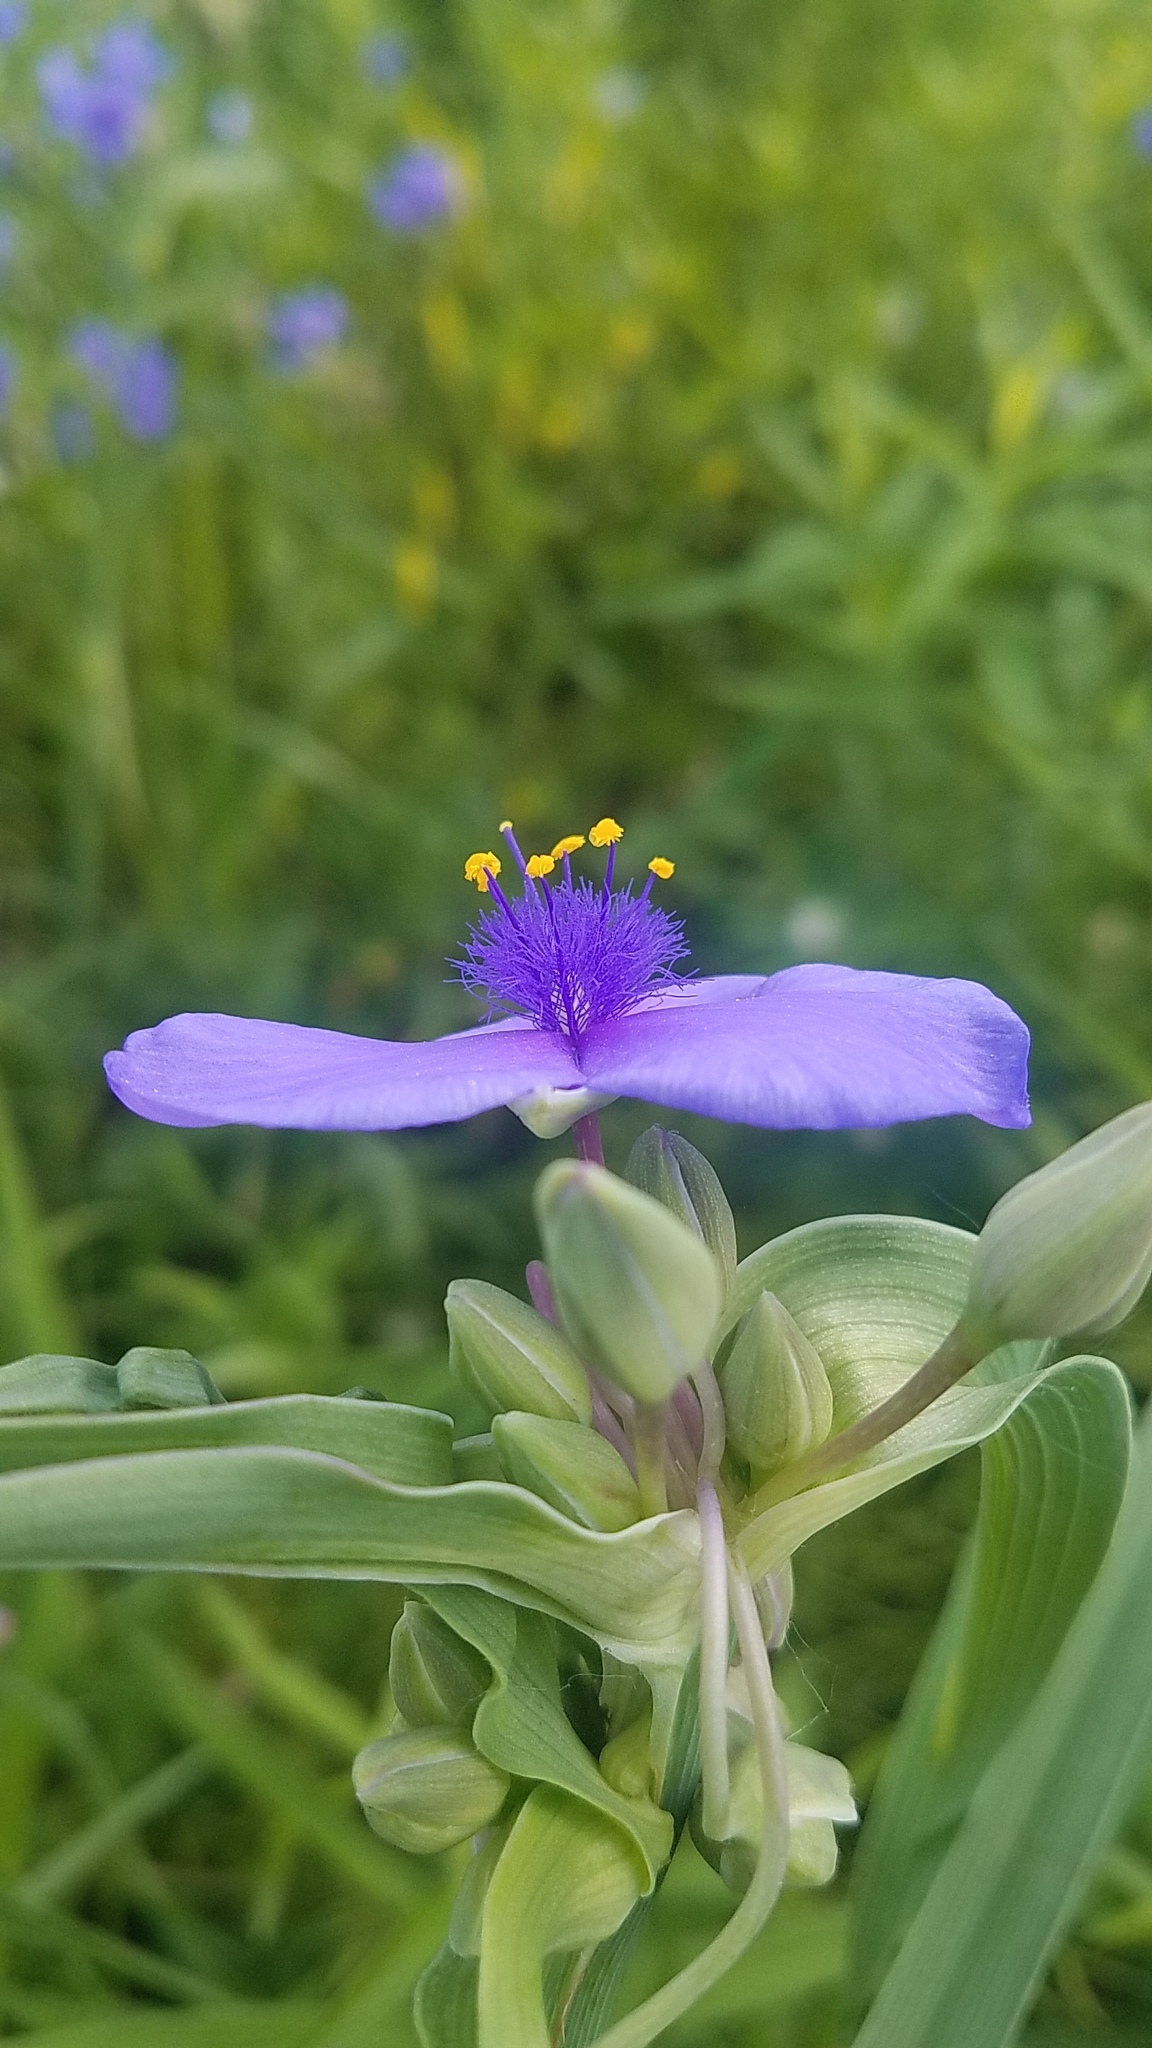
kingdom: Plantae
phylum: Tracheophyta
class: Liliopsida
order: Commelinales
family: Commelinaceae
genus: Tradescantia
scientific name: Tradescantia ohiensis
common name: Ohio spiderwort
